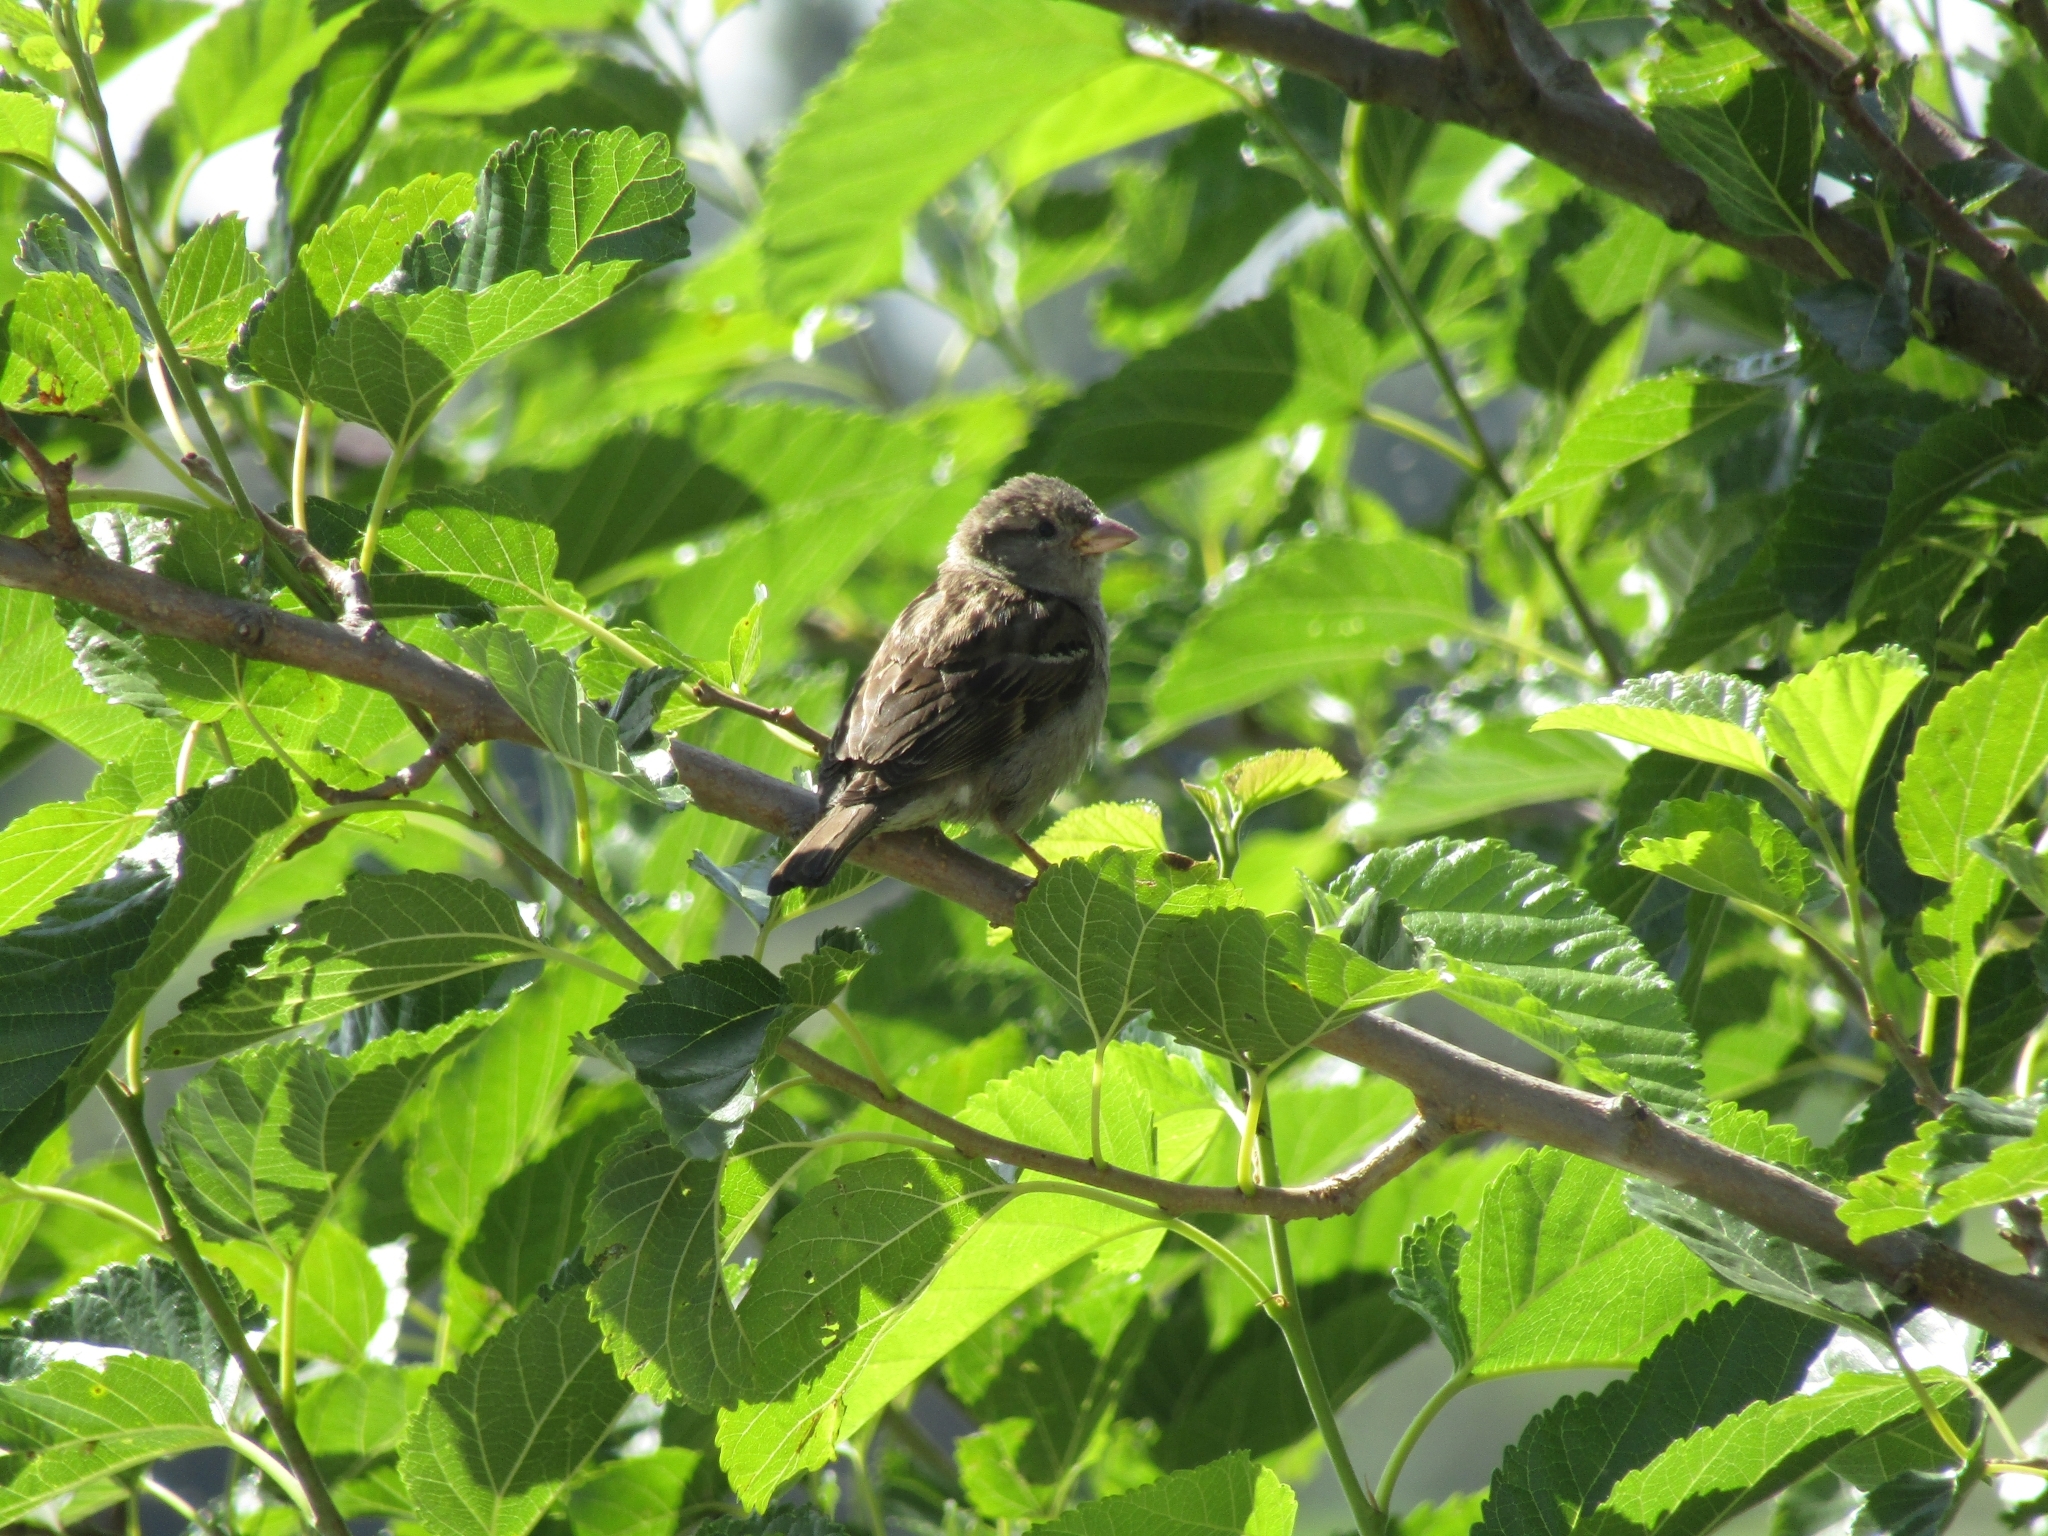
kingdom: Animalia
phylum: Chordata
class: Aves
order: Passeriformes
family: Passeridae
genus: Passer
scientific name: Passer domesticus
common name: House sparrow
